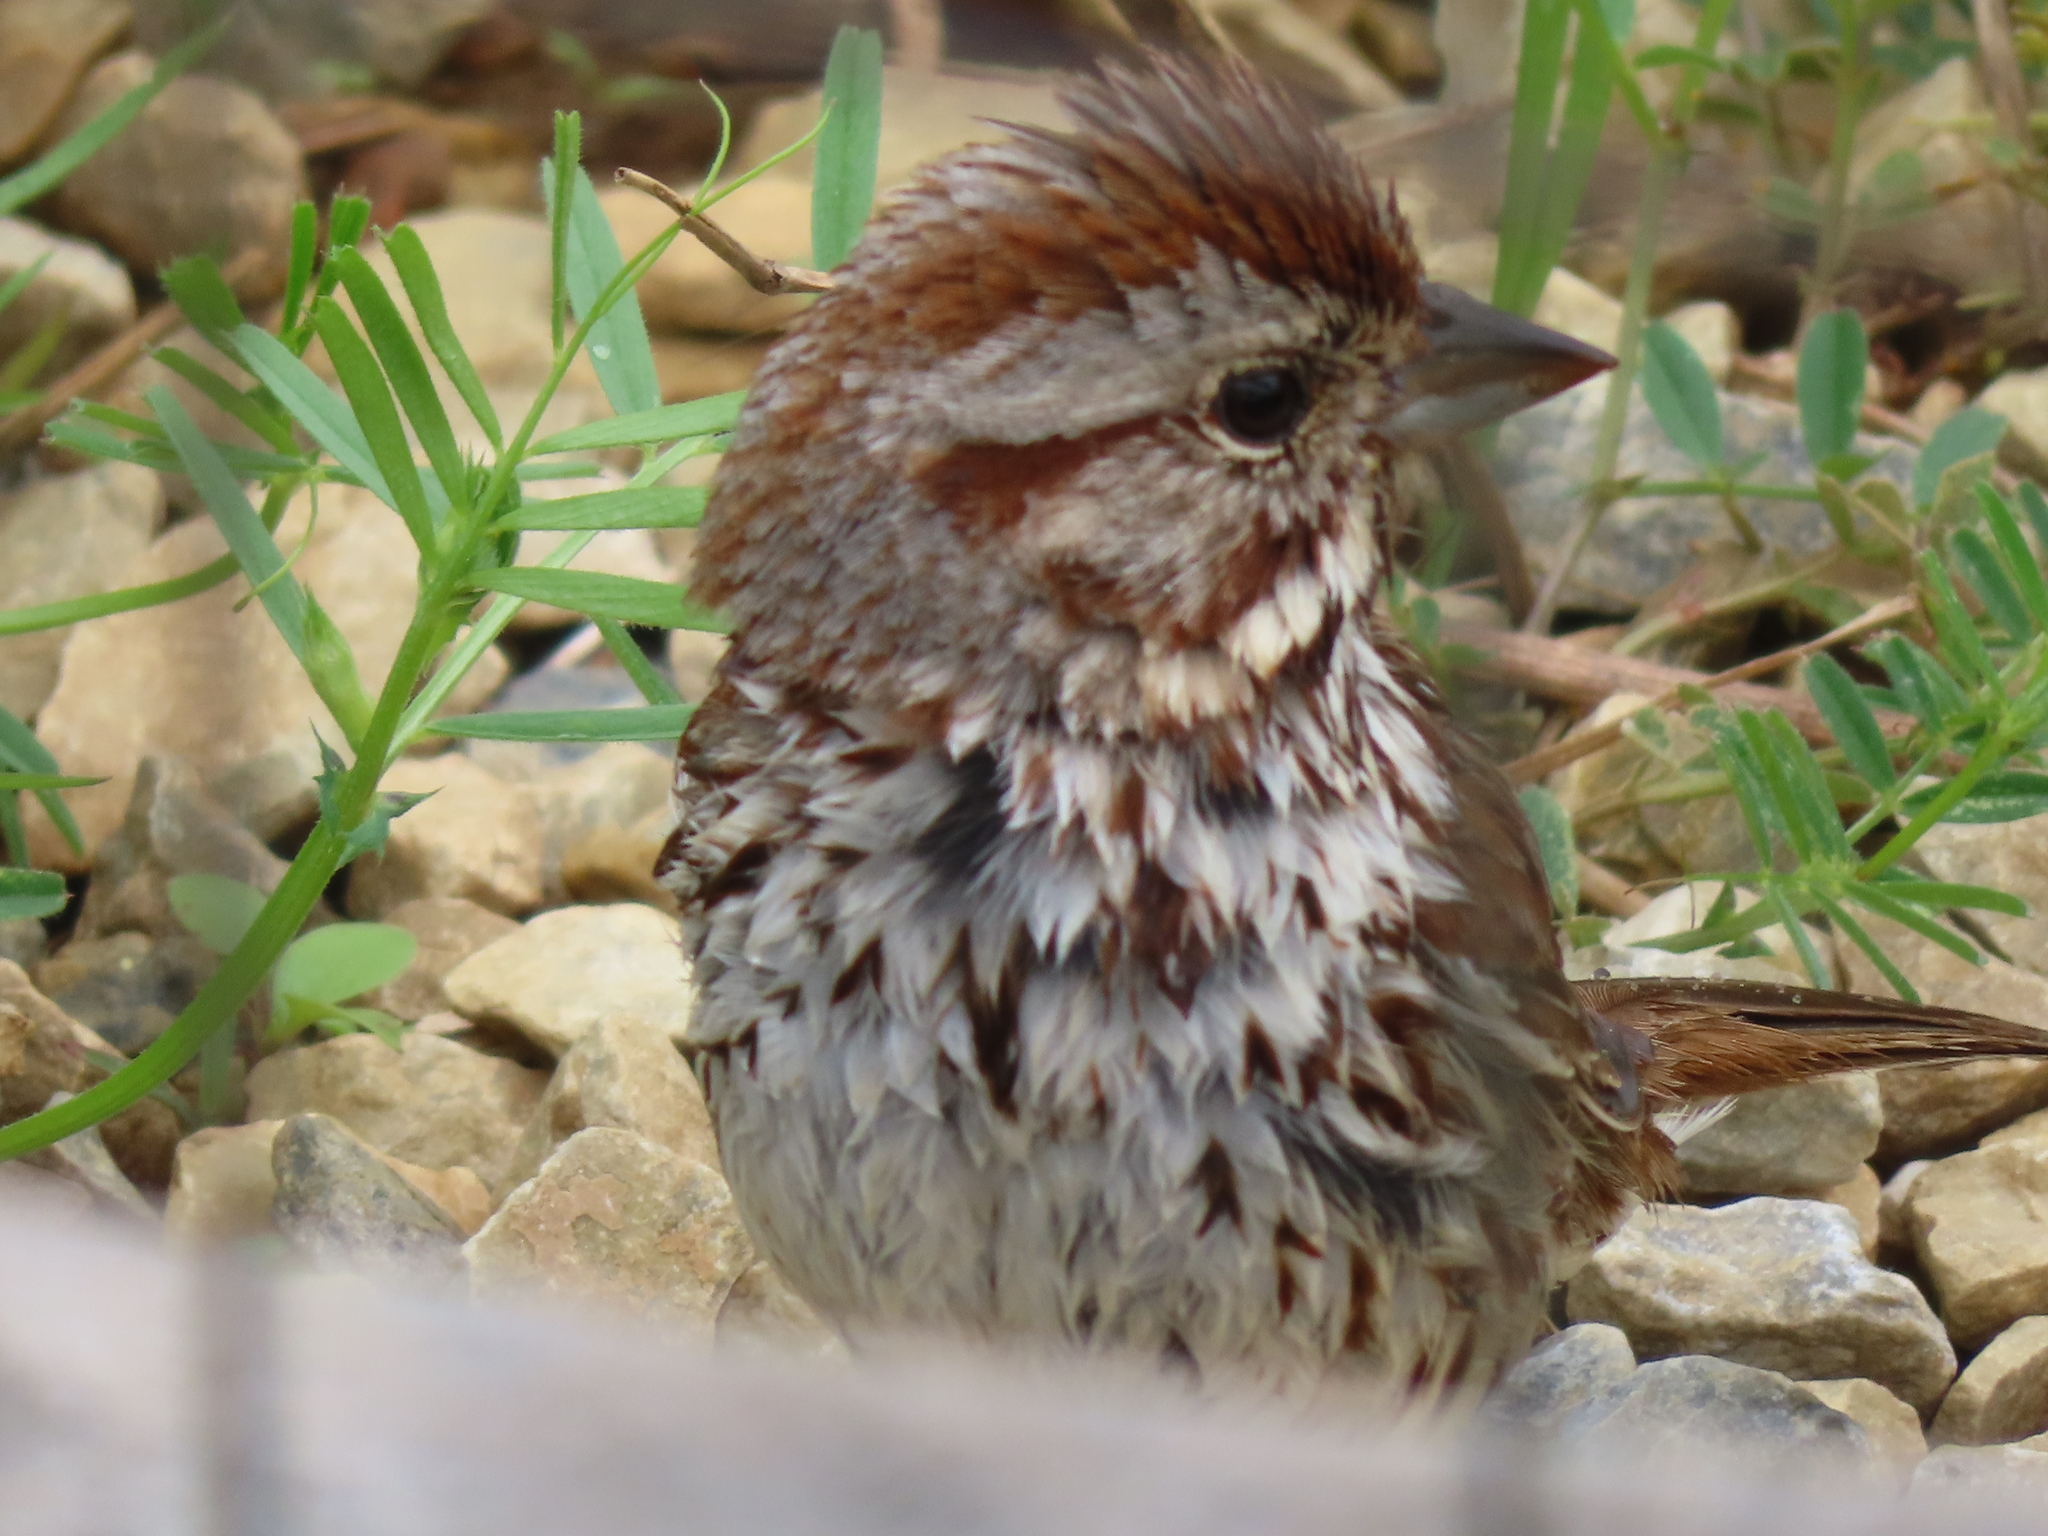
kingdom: Animalia
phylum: Chordata
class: Aves
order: Passeriformes
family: Passerellidae
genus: Melospiza
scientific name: Melospiza melodia
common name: Song sparrow
